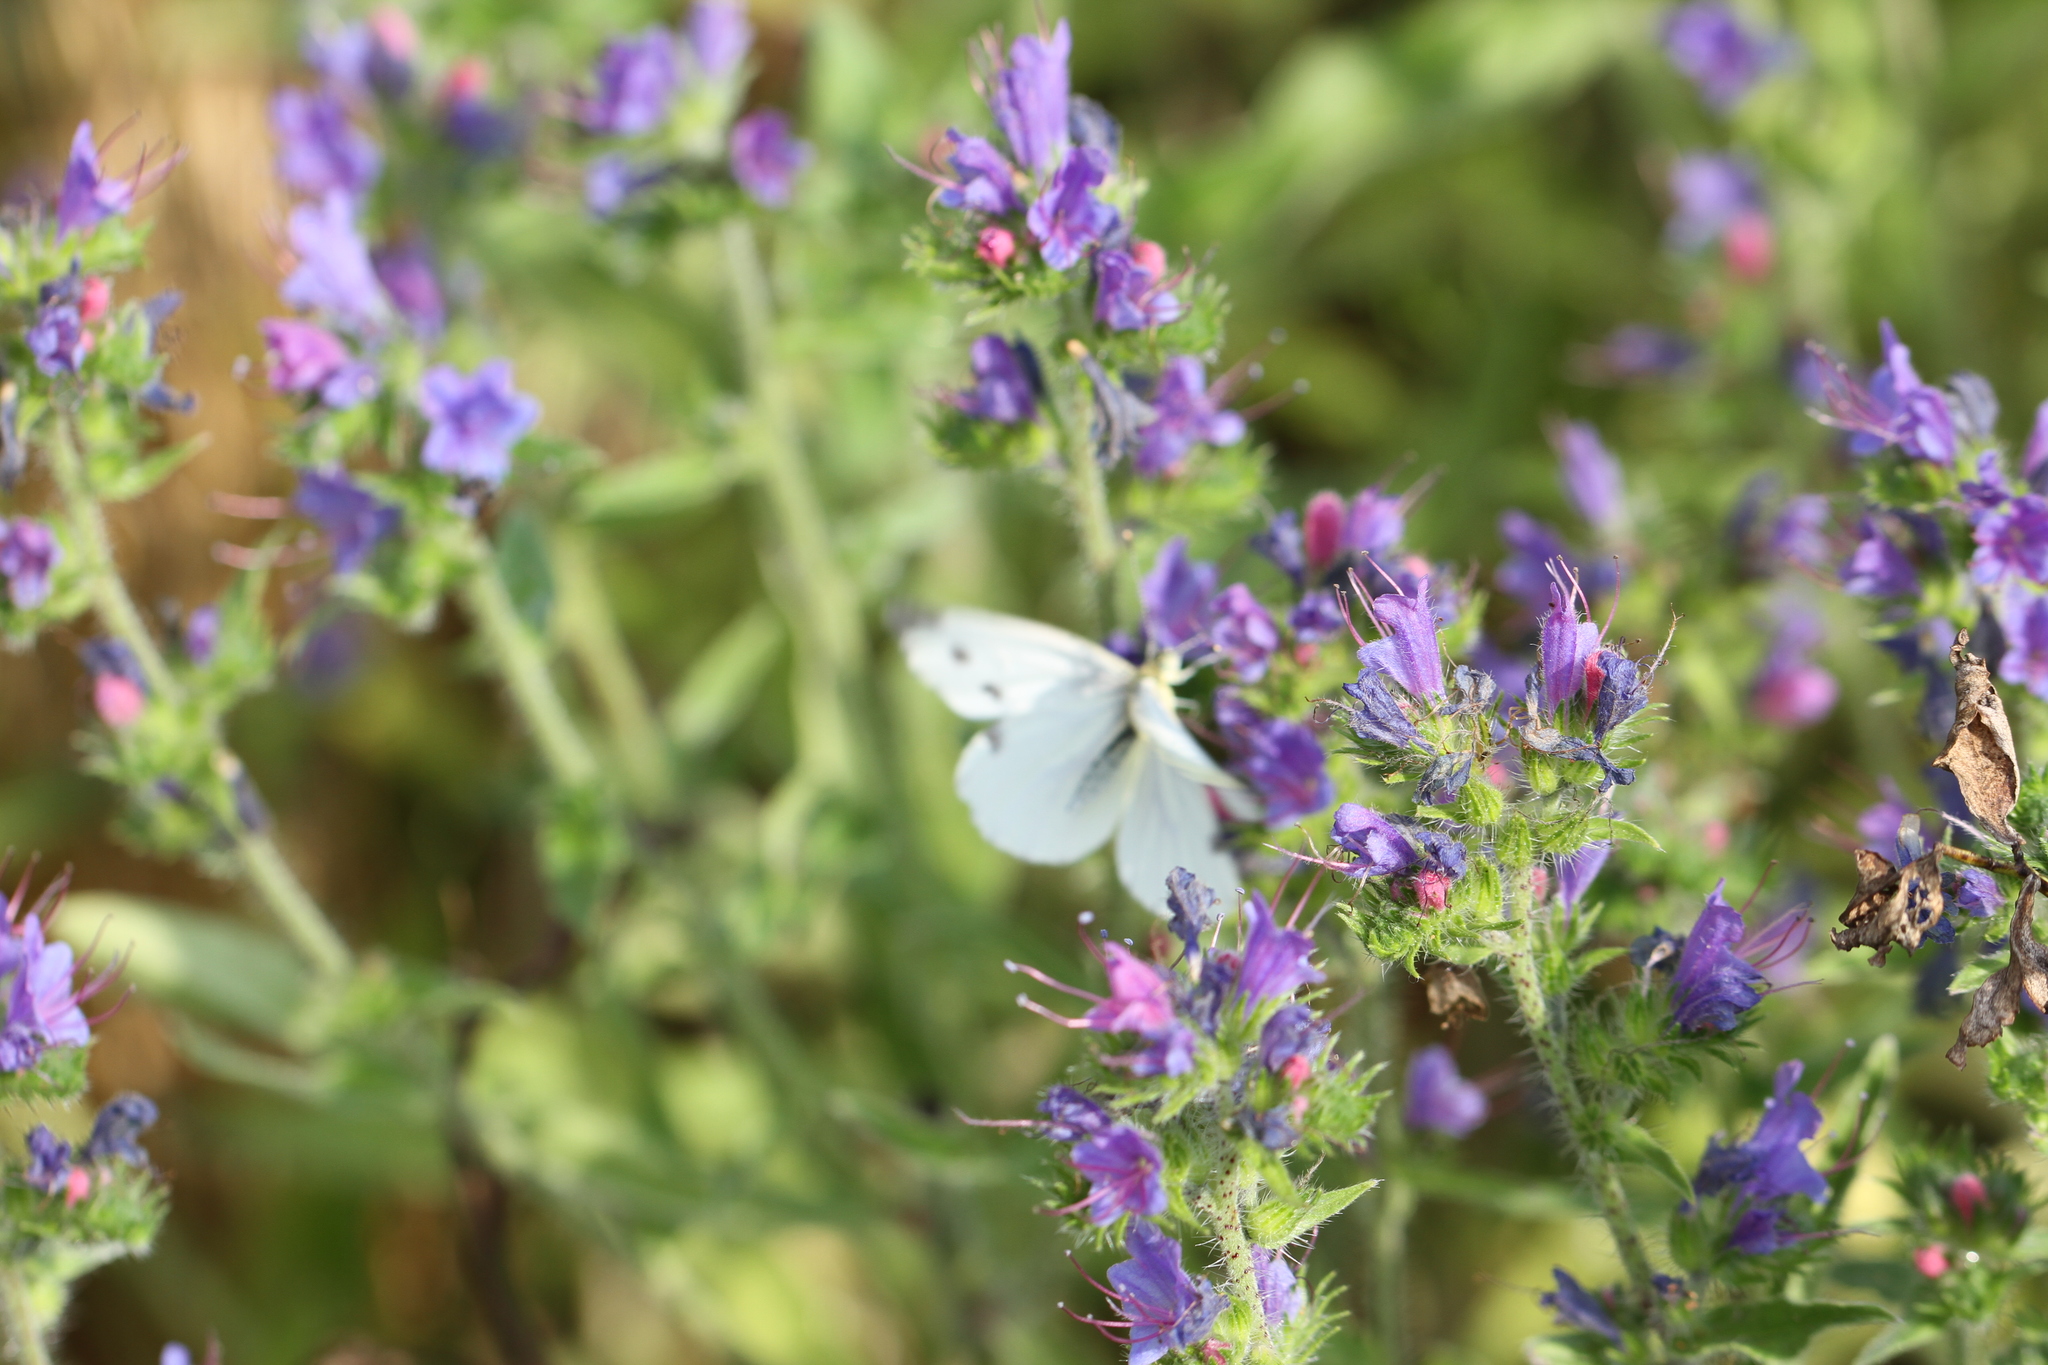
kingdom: Animalia
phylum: Arthropoda
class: Insecta
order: Lepidoptera
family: Pieridae
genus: Pieris
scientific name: Pieris napi
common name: Green-veined white
